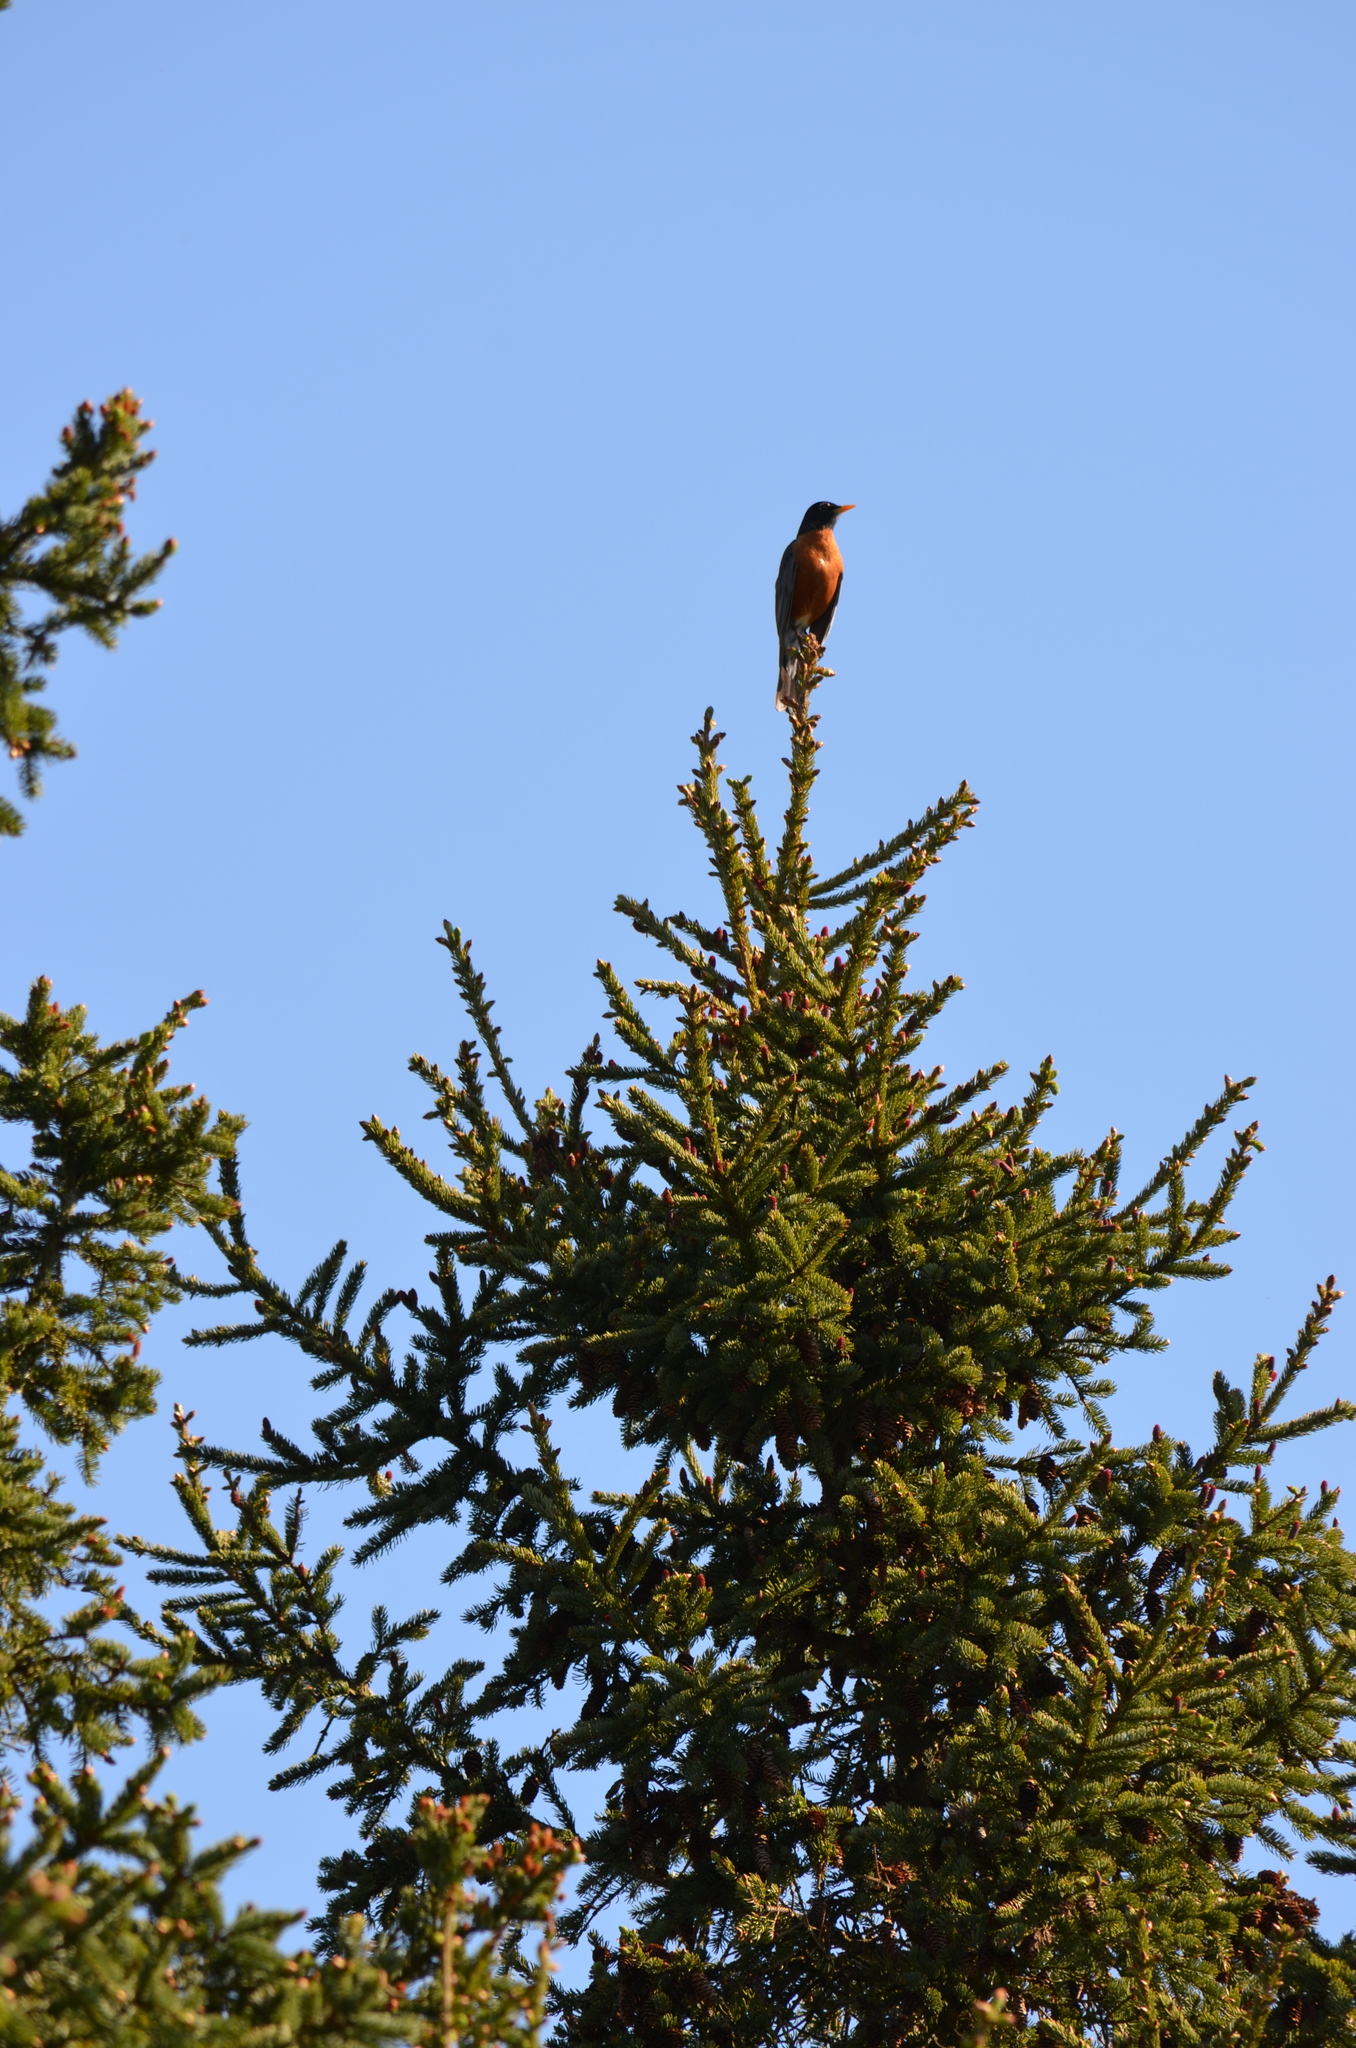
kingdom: Animalia
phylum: Chordata
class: Aves
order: Passeriformes
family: Turdidae
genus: Turdus
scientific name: Turdus migratorius
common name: American robin
